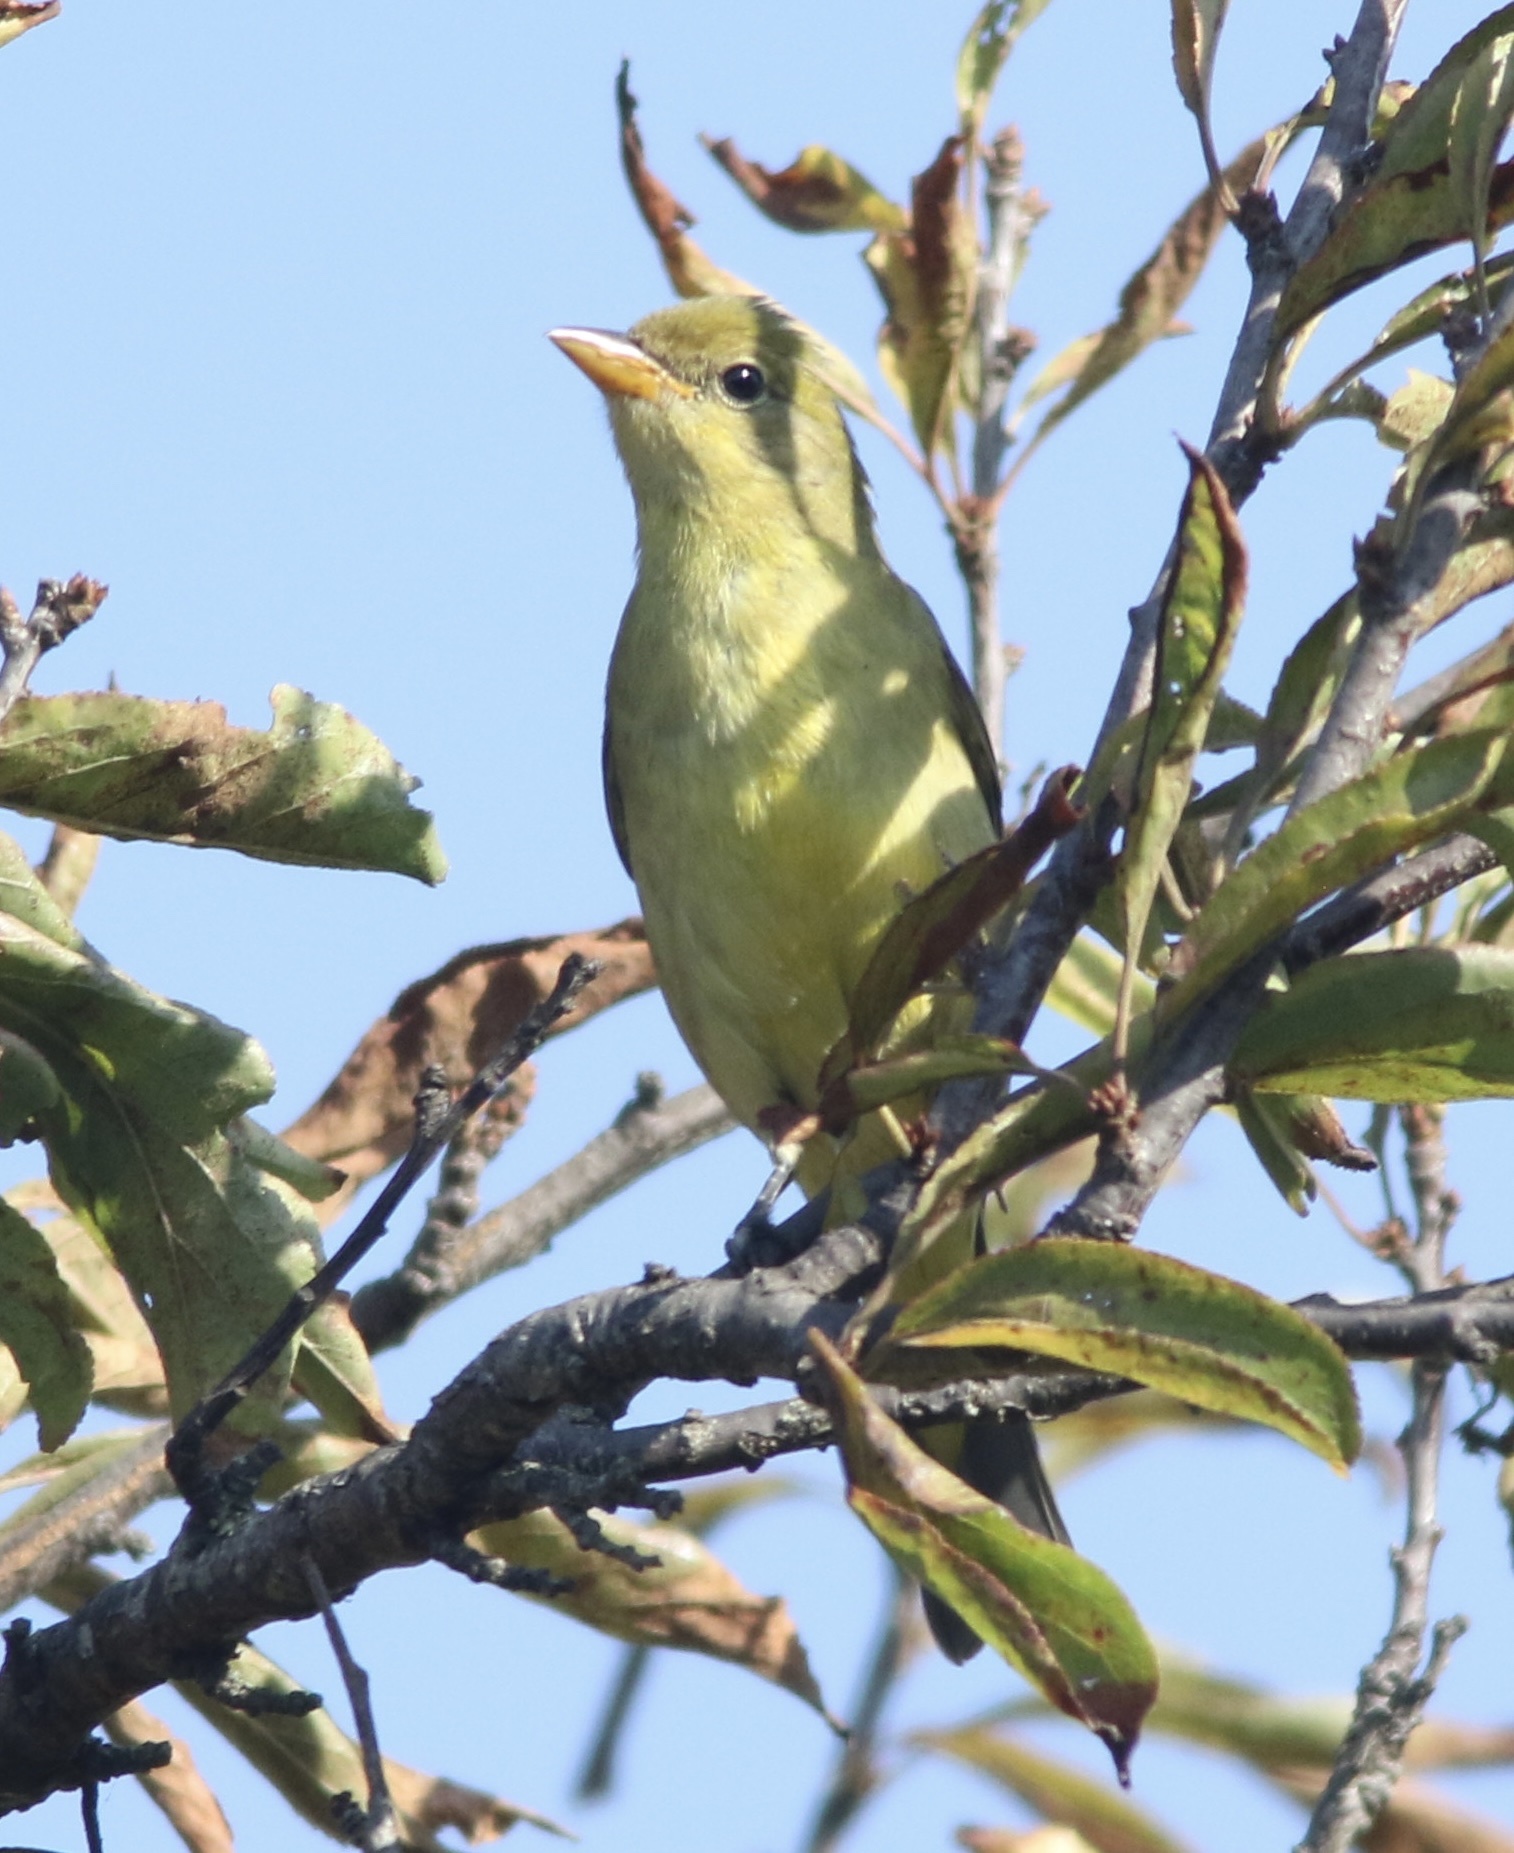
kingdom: Animalia
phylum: Chordata
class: Aves
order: Passeriformes
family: Cardinalidae
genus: Piranga
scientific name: Piranga ludoviciana
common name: Western tanager
